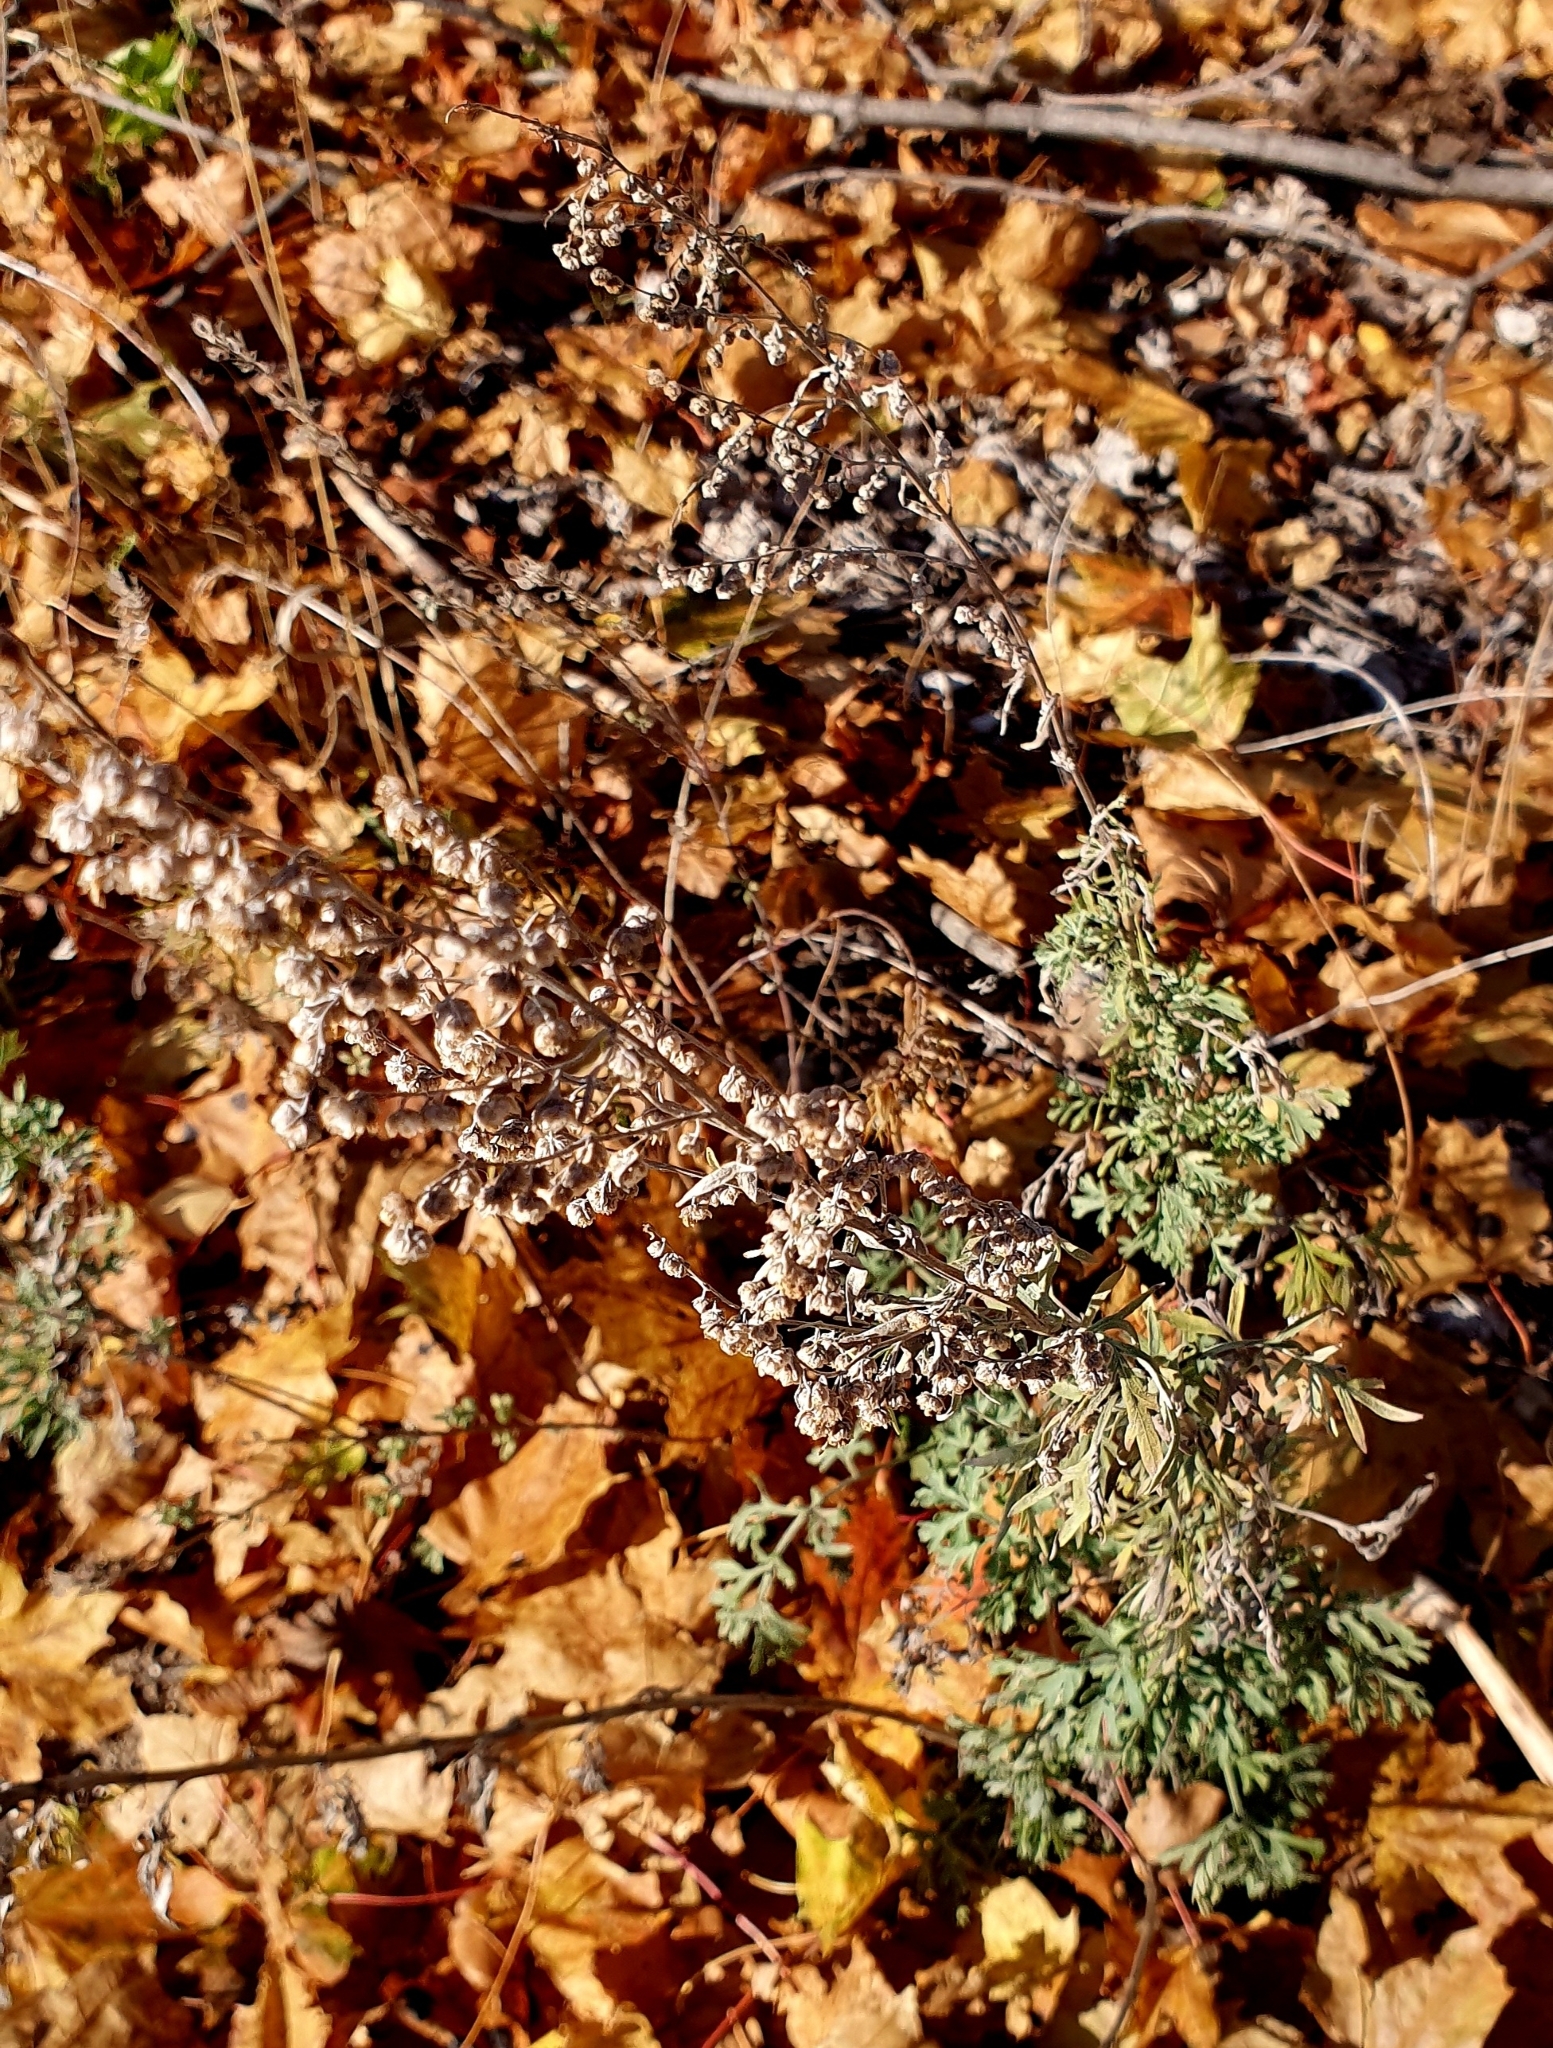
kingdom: Plantae
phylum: Tracheophyta
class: Magnoliopsida
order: Asterales
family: Asteraceae
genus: Artemisia
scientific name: Artemisia absinthium
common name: Wormwood
